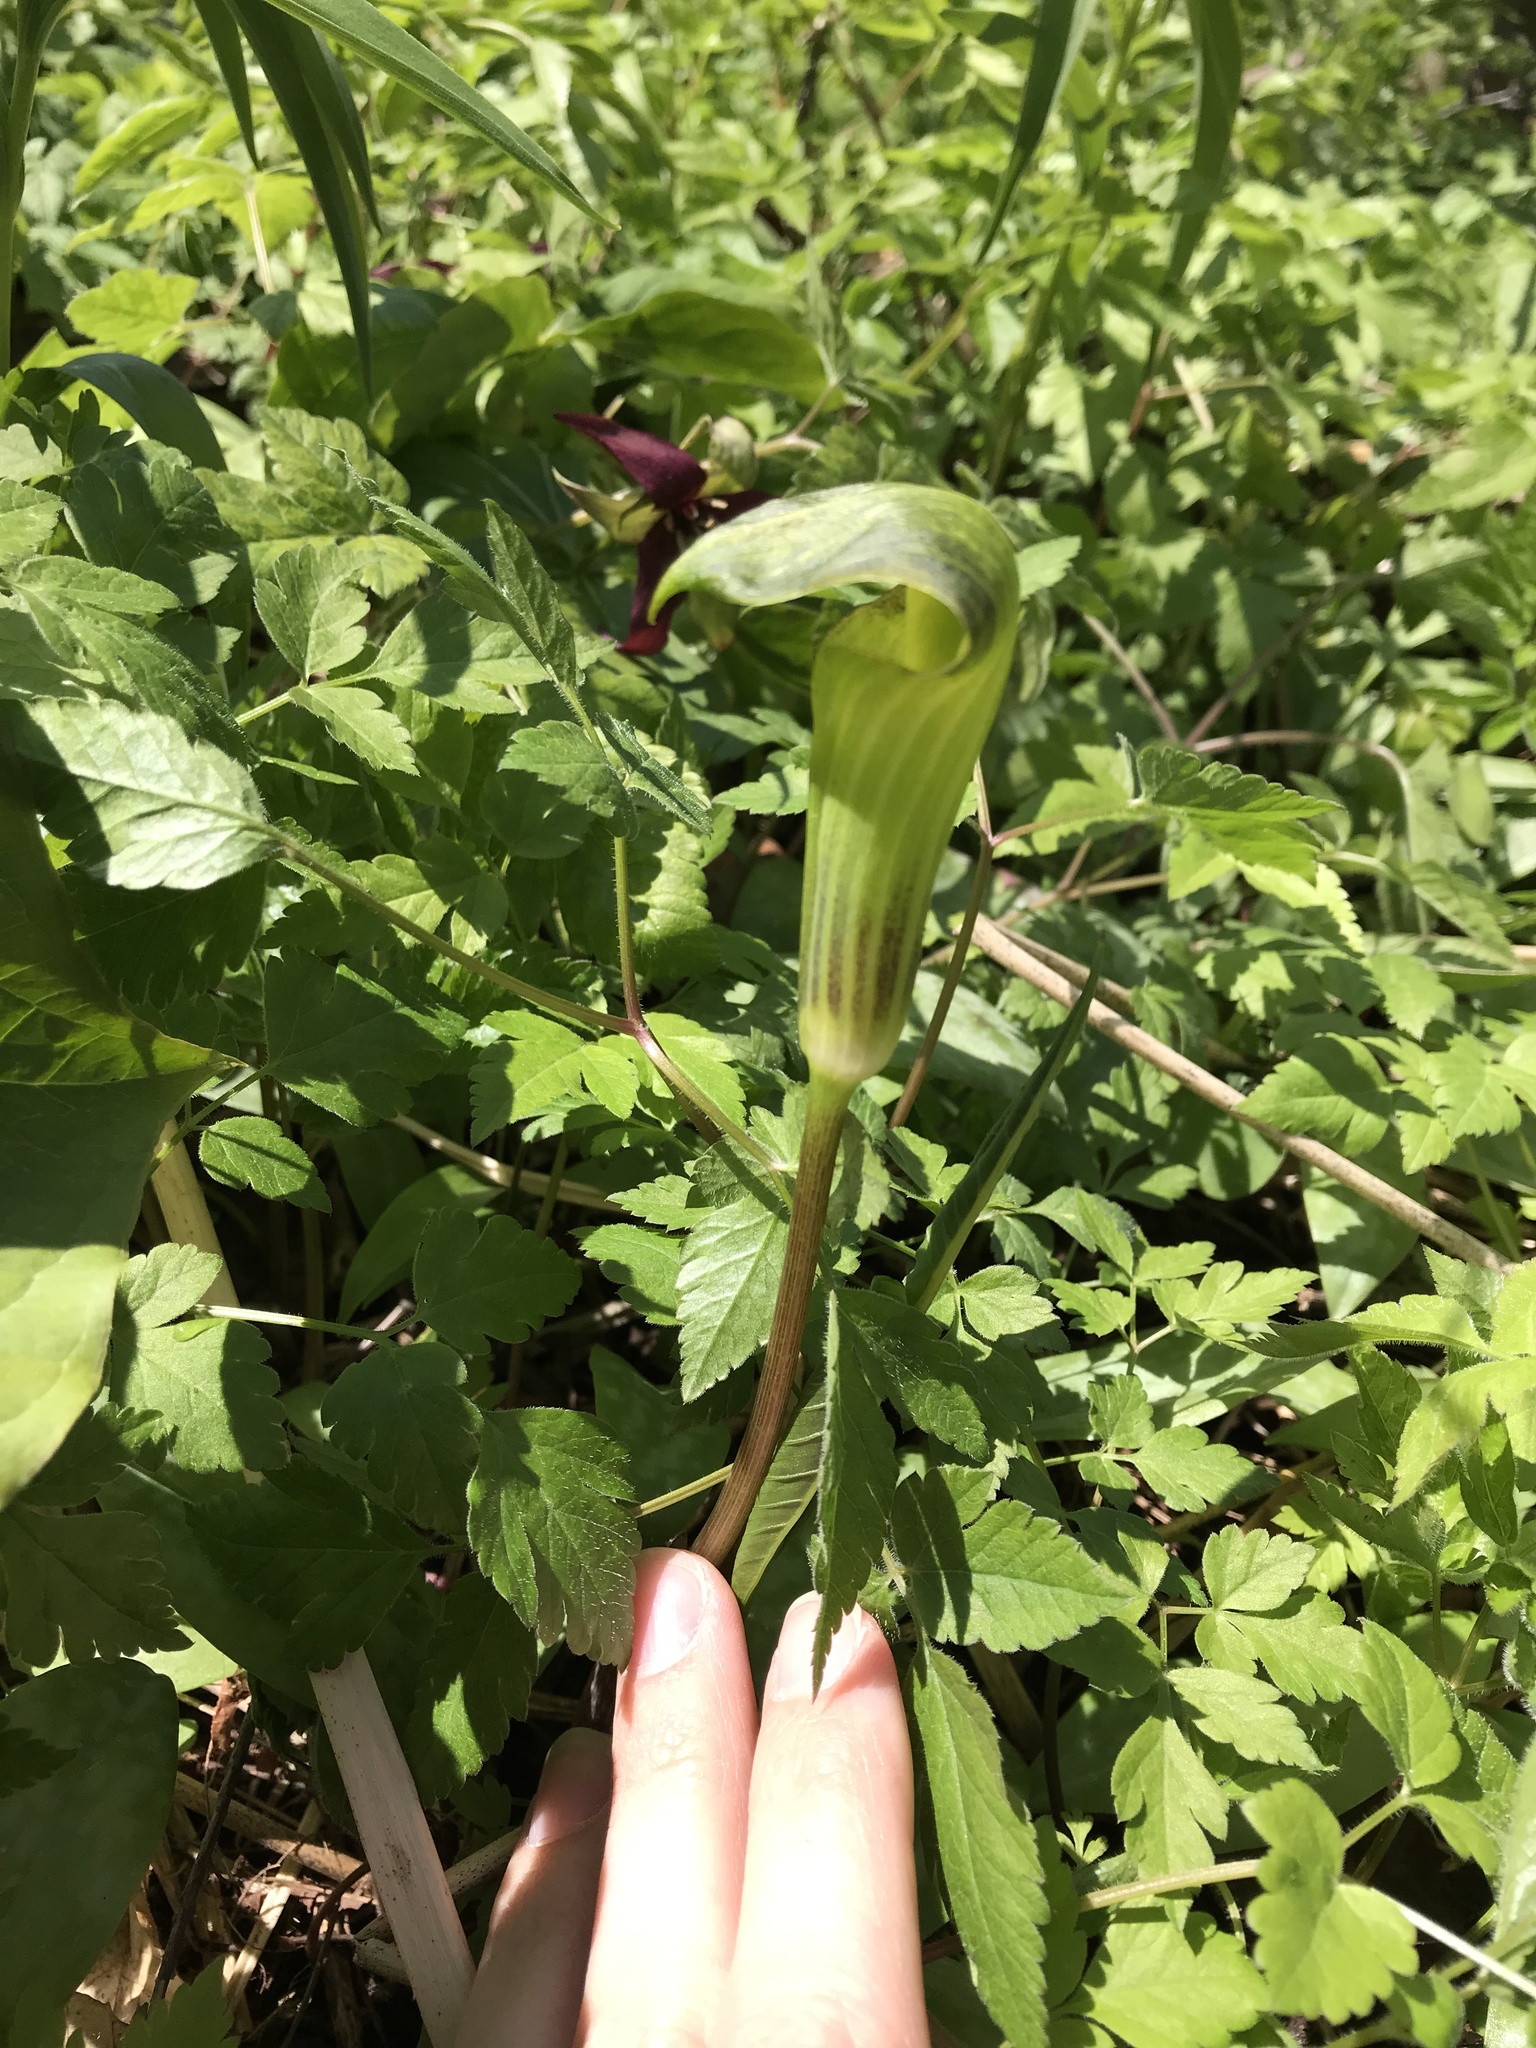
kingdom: Plantae
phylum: Tracheophyta
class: Liliopsida
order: Alismatales
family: Araceae
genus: Arisaema
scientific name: Arisaema triphyllum
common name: Jack-in-the-pulpit
